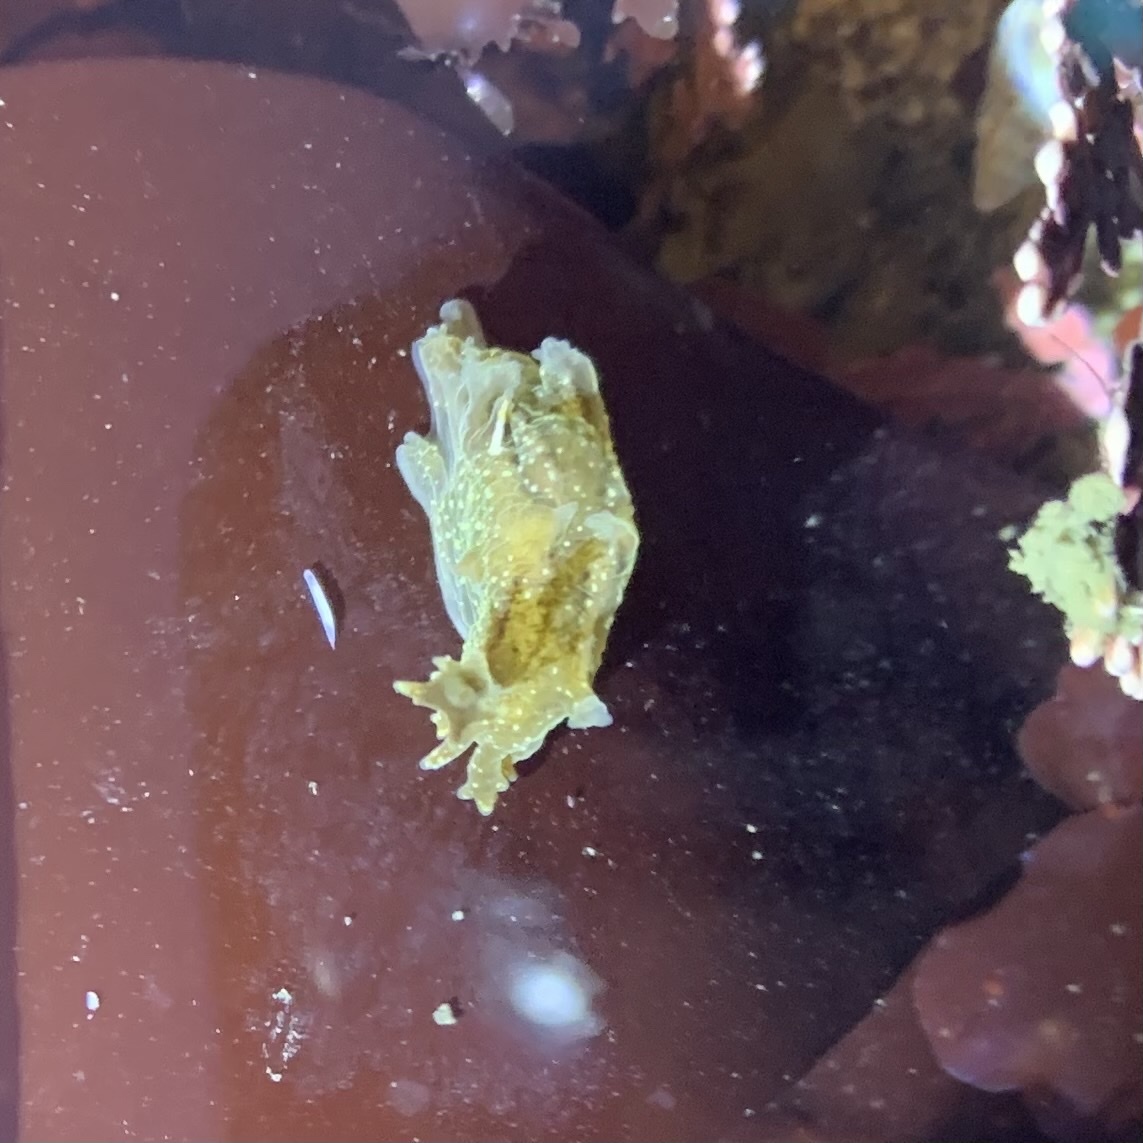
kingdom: Animalia
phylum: Mollusca
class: Gastropoda
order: Nudibranchia
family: Dendronotidae
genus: Dendronotus
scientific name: Dendronotus subramosus
